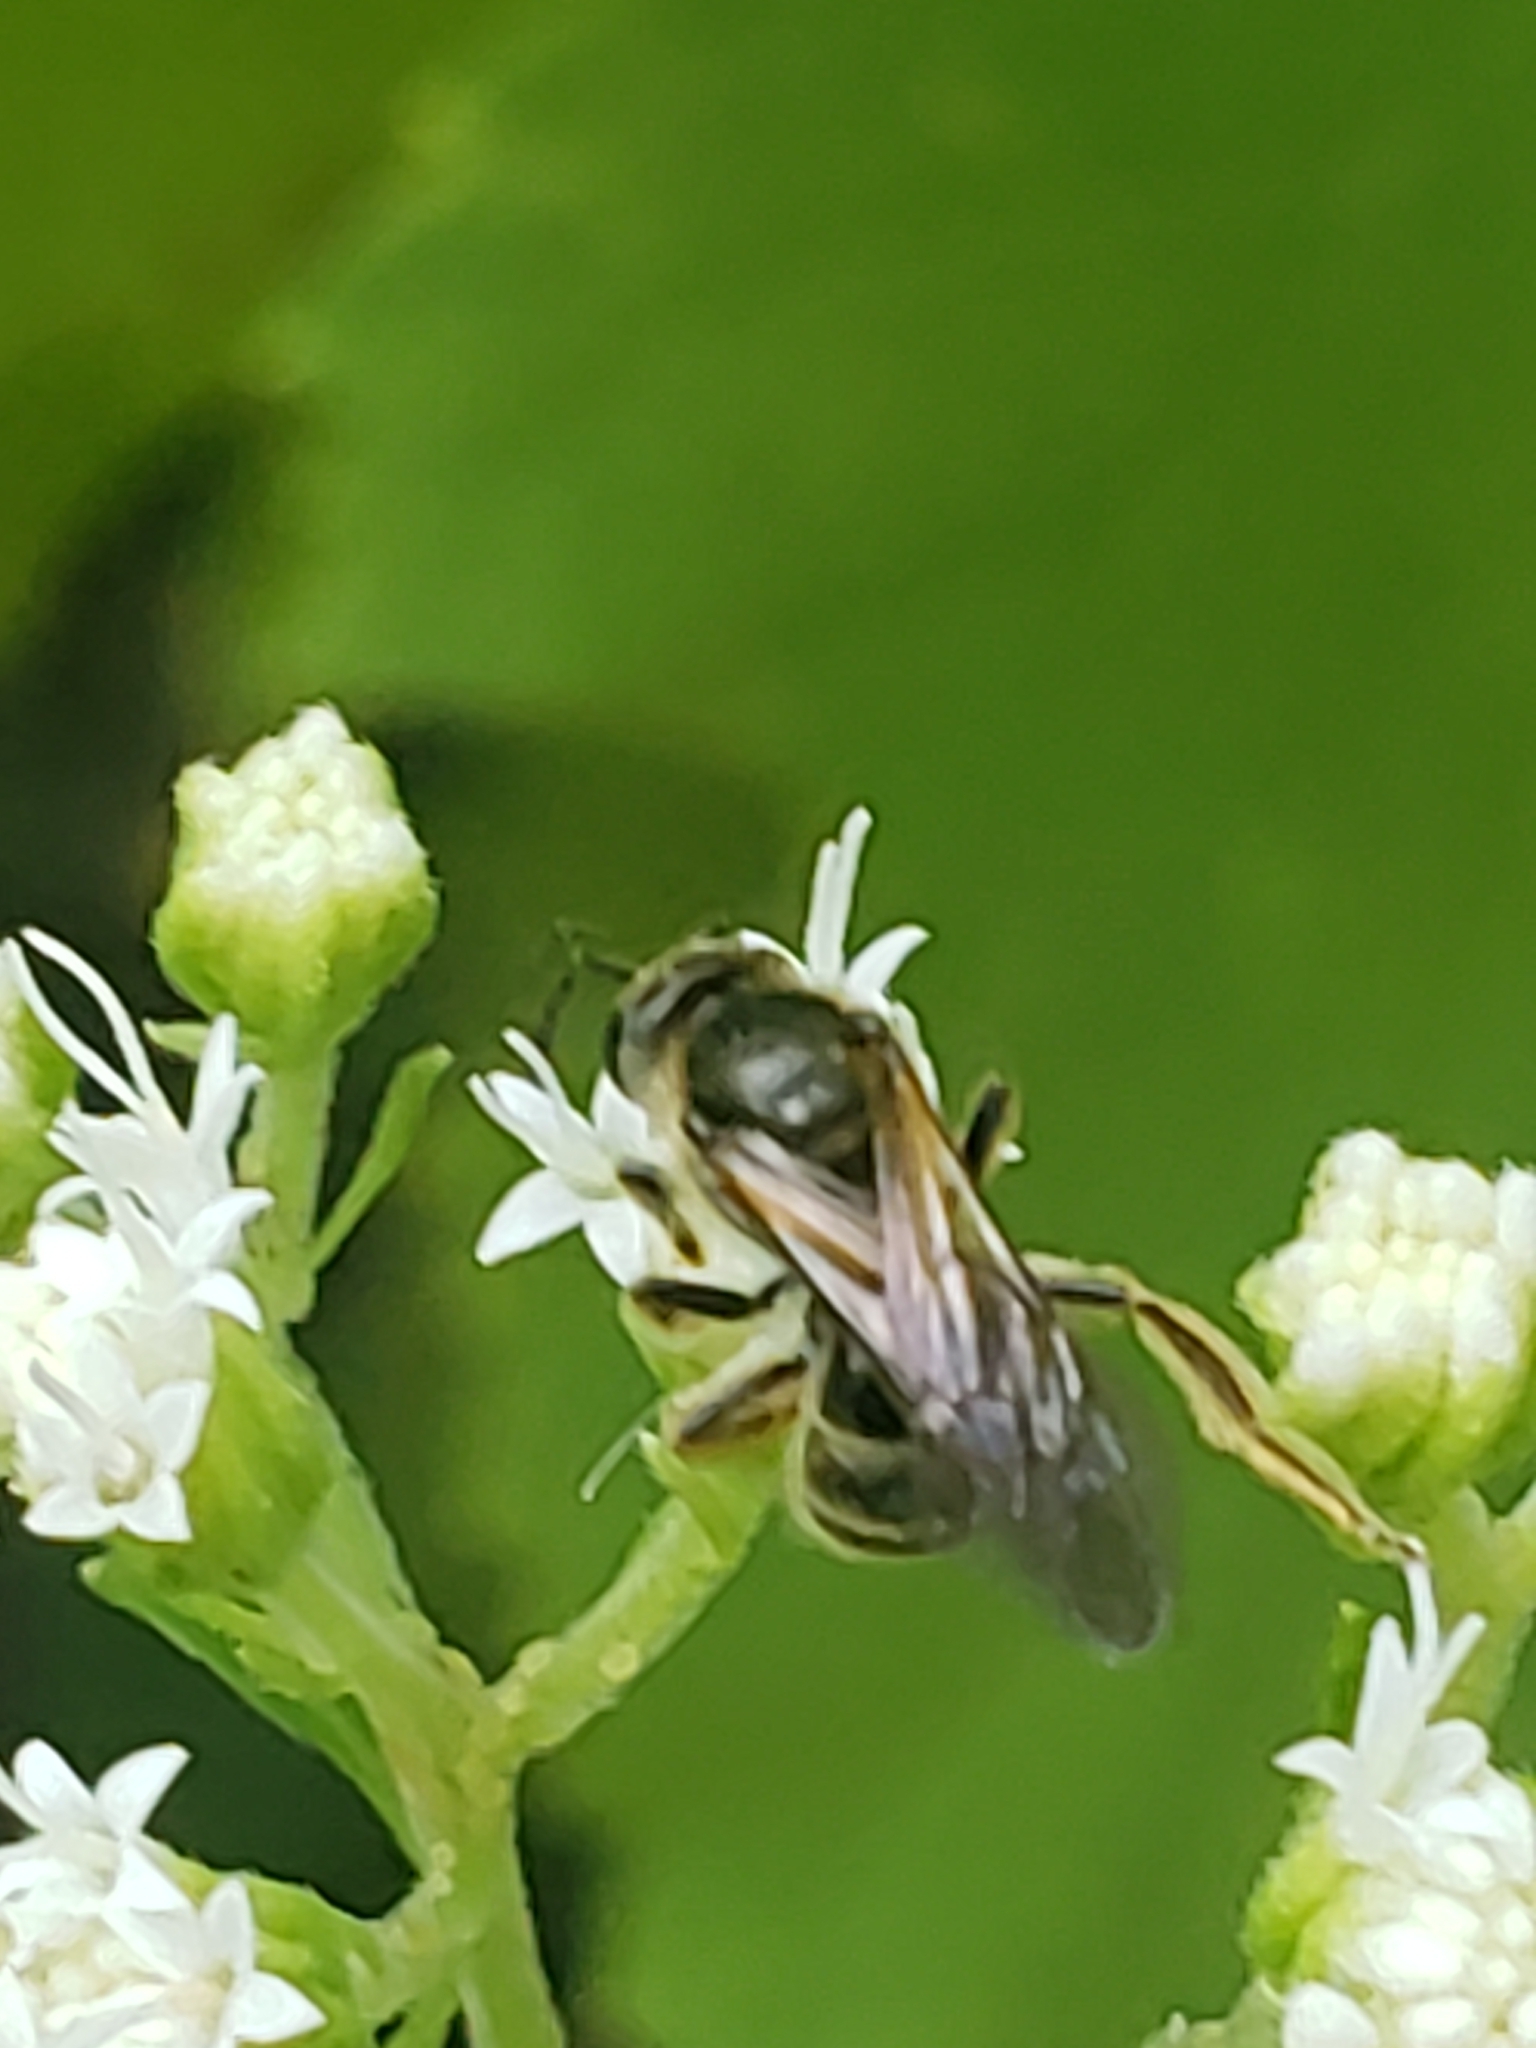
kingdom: Animalia
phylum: Arthropoda
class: Insecta
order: Hymenoptera
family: Halictidae
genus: Lasioglossum
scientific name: Lasioglossum quebecense
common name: Quebec sweat bee
